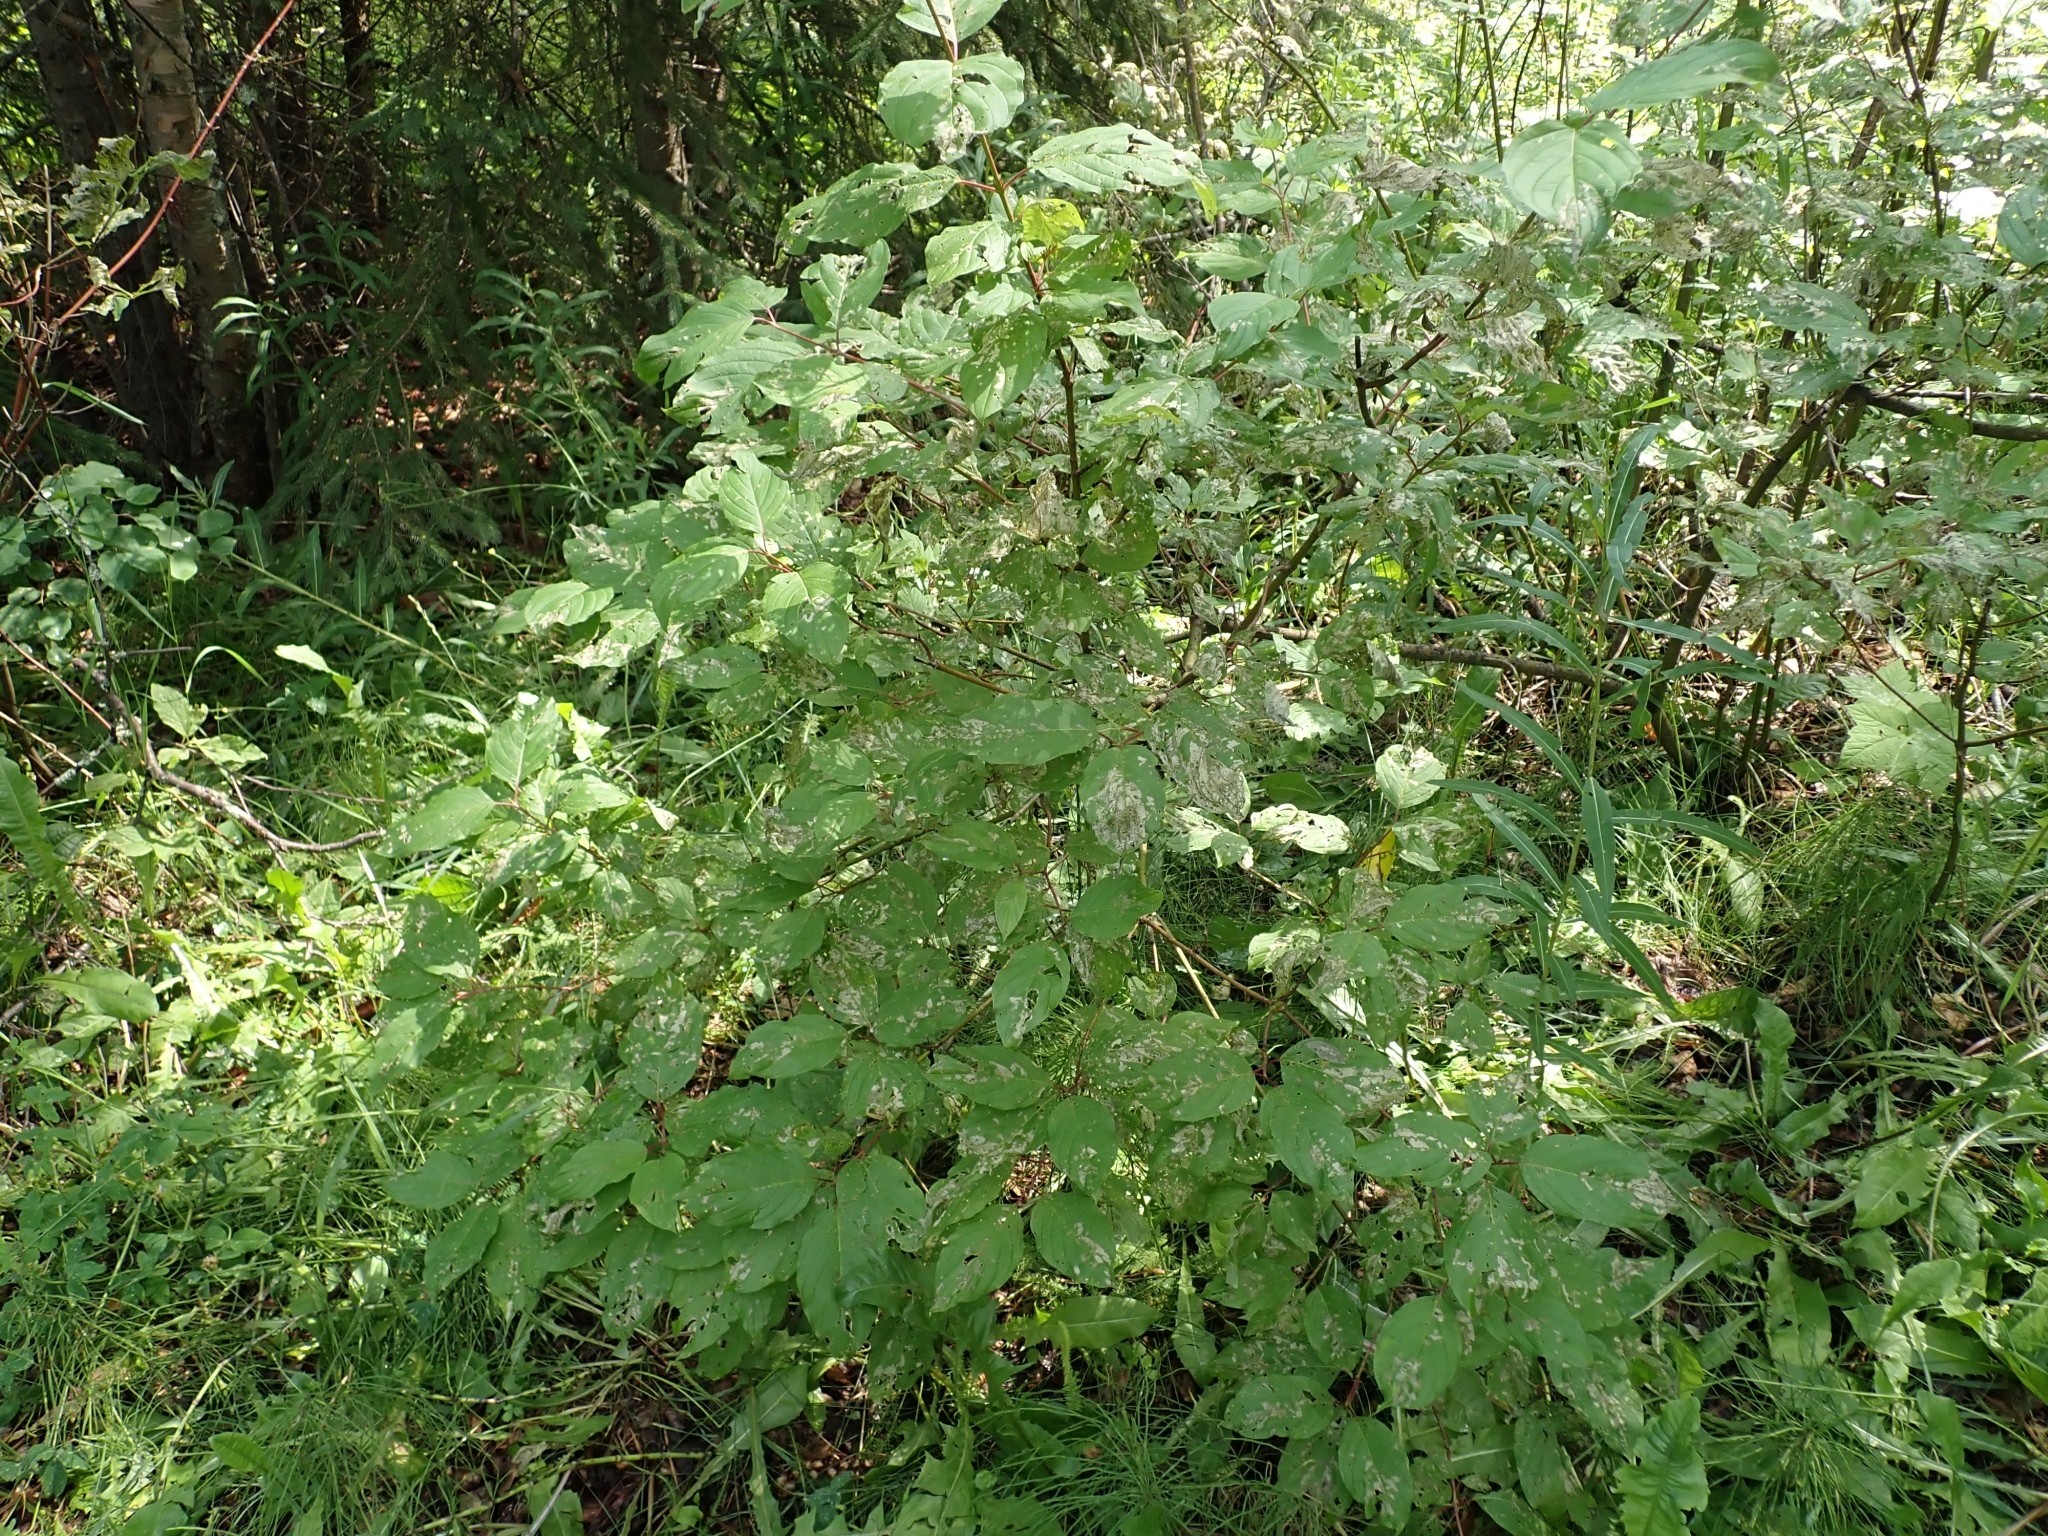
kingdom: Plantae
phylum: Tracheophyta
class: Magnoliopsida
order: Cornales
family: Cornaceae
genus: Cornus
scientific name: Cornus sericea
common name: Red-osier dogwood
